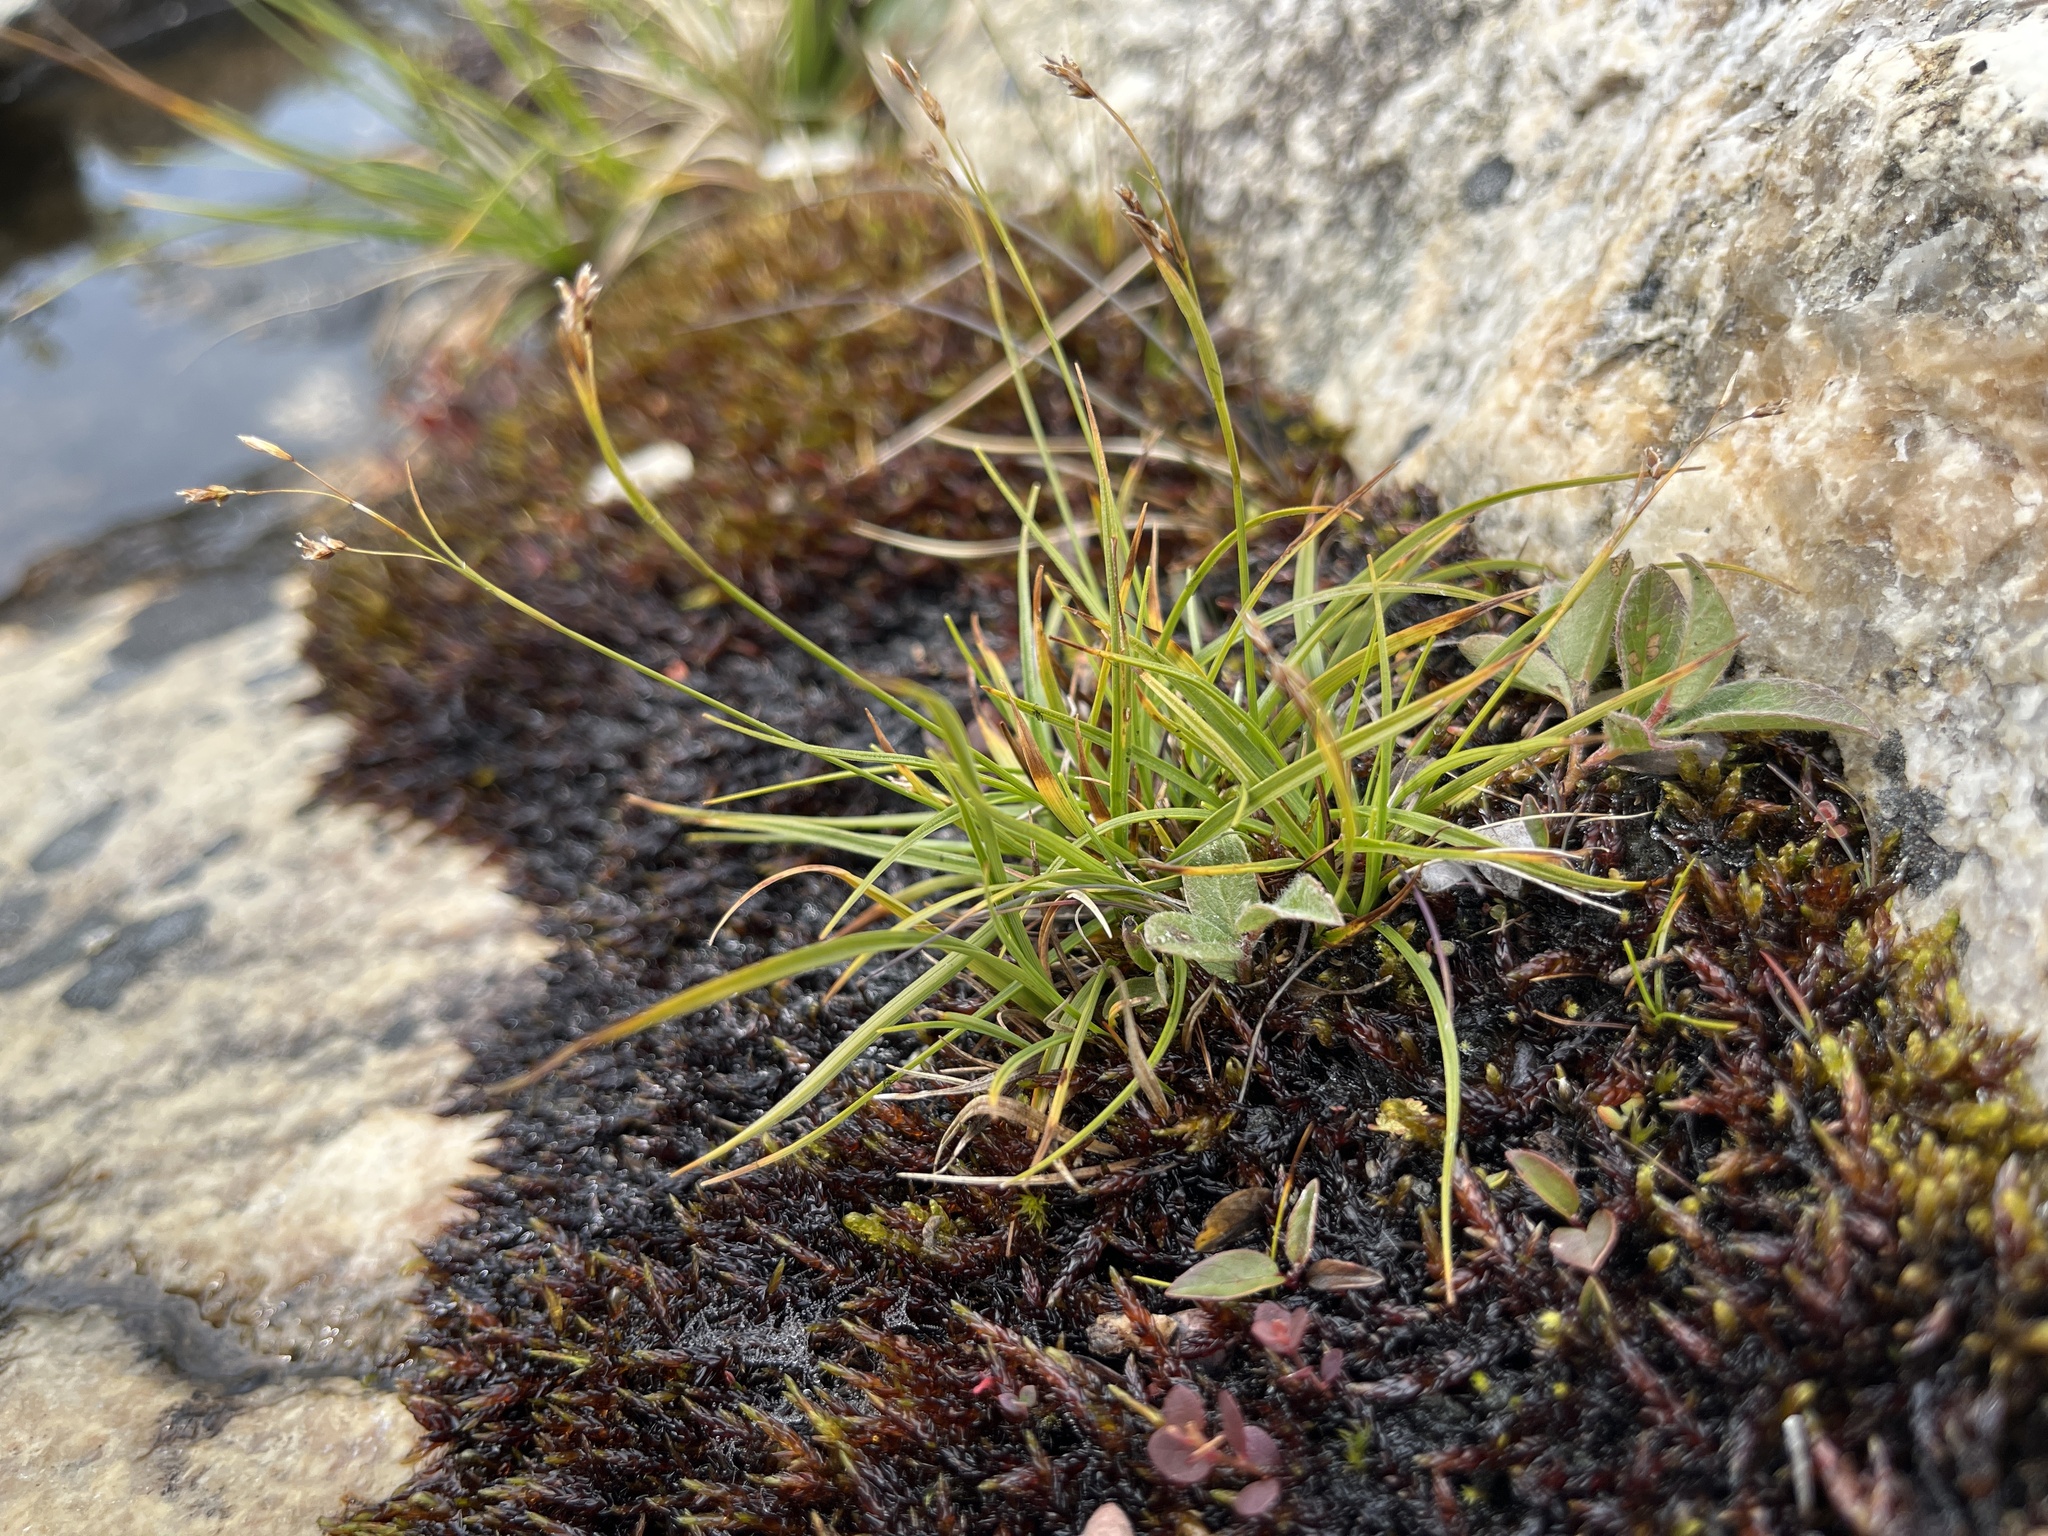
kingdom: Plantae
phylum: Tracheophyta
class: Liliopsida
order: Poales
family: Cyperaceae
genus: Carex
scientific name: Carex capillaris
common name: Hair sedge
